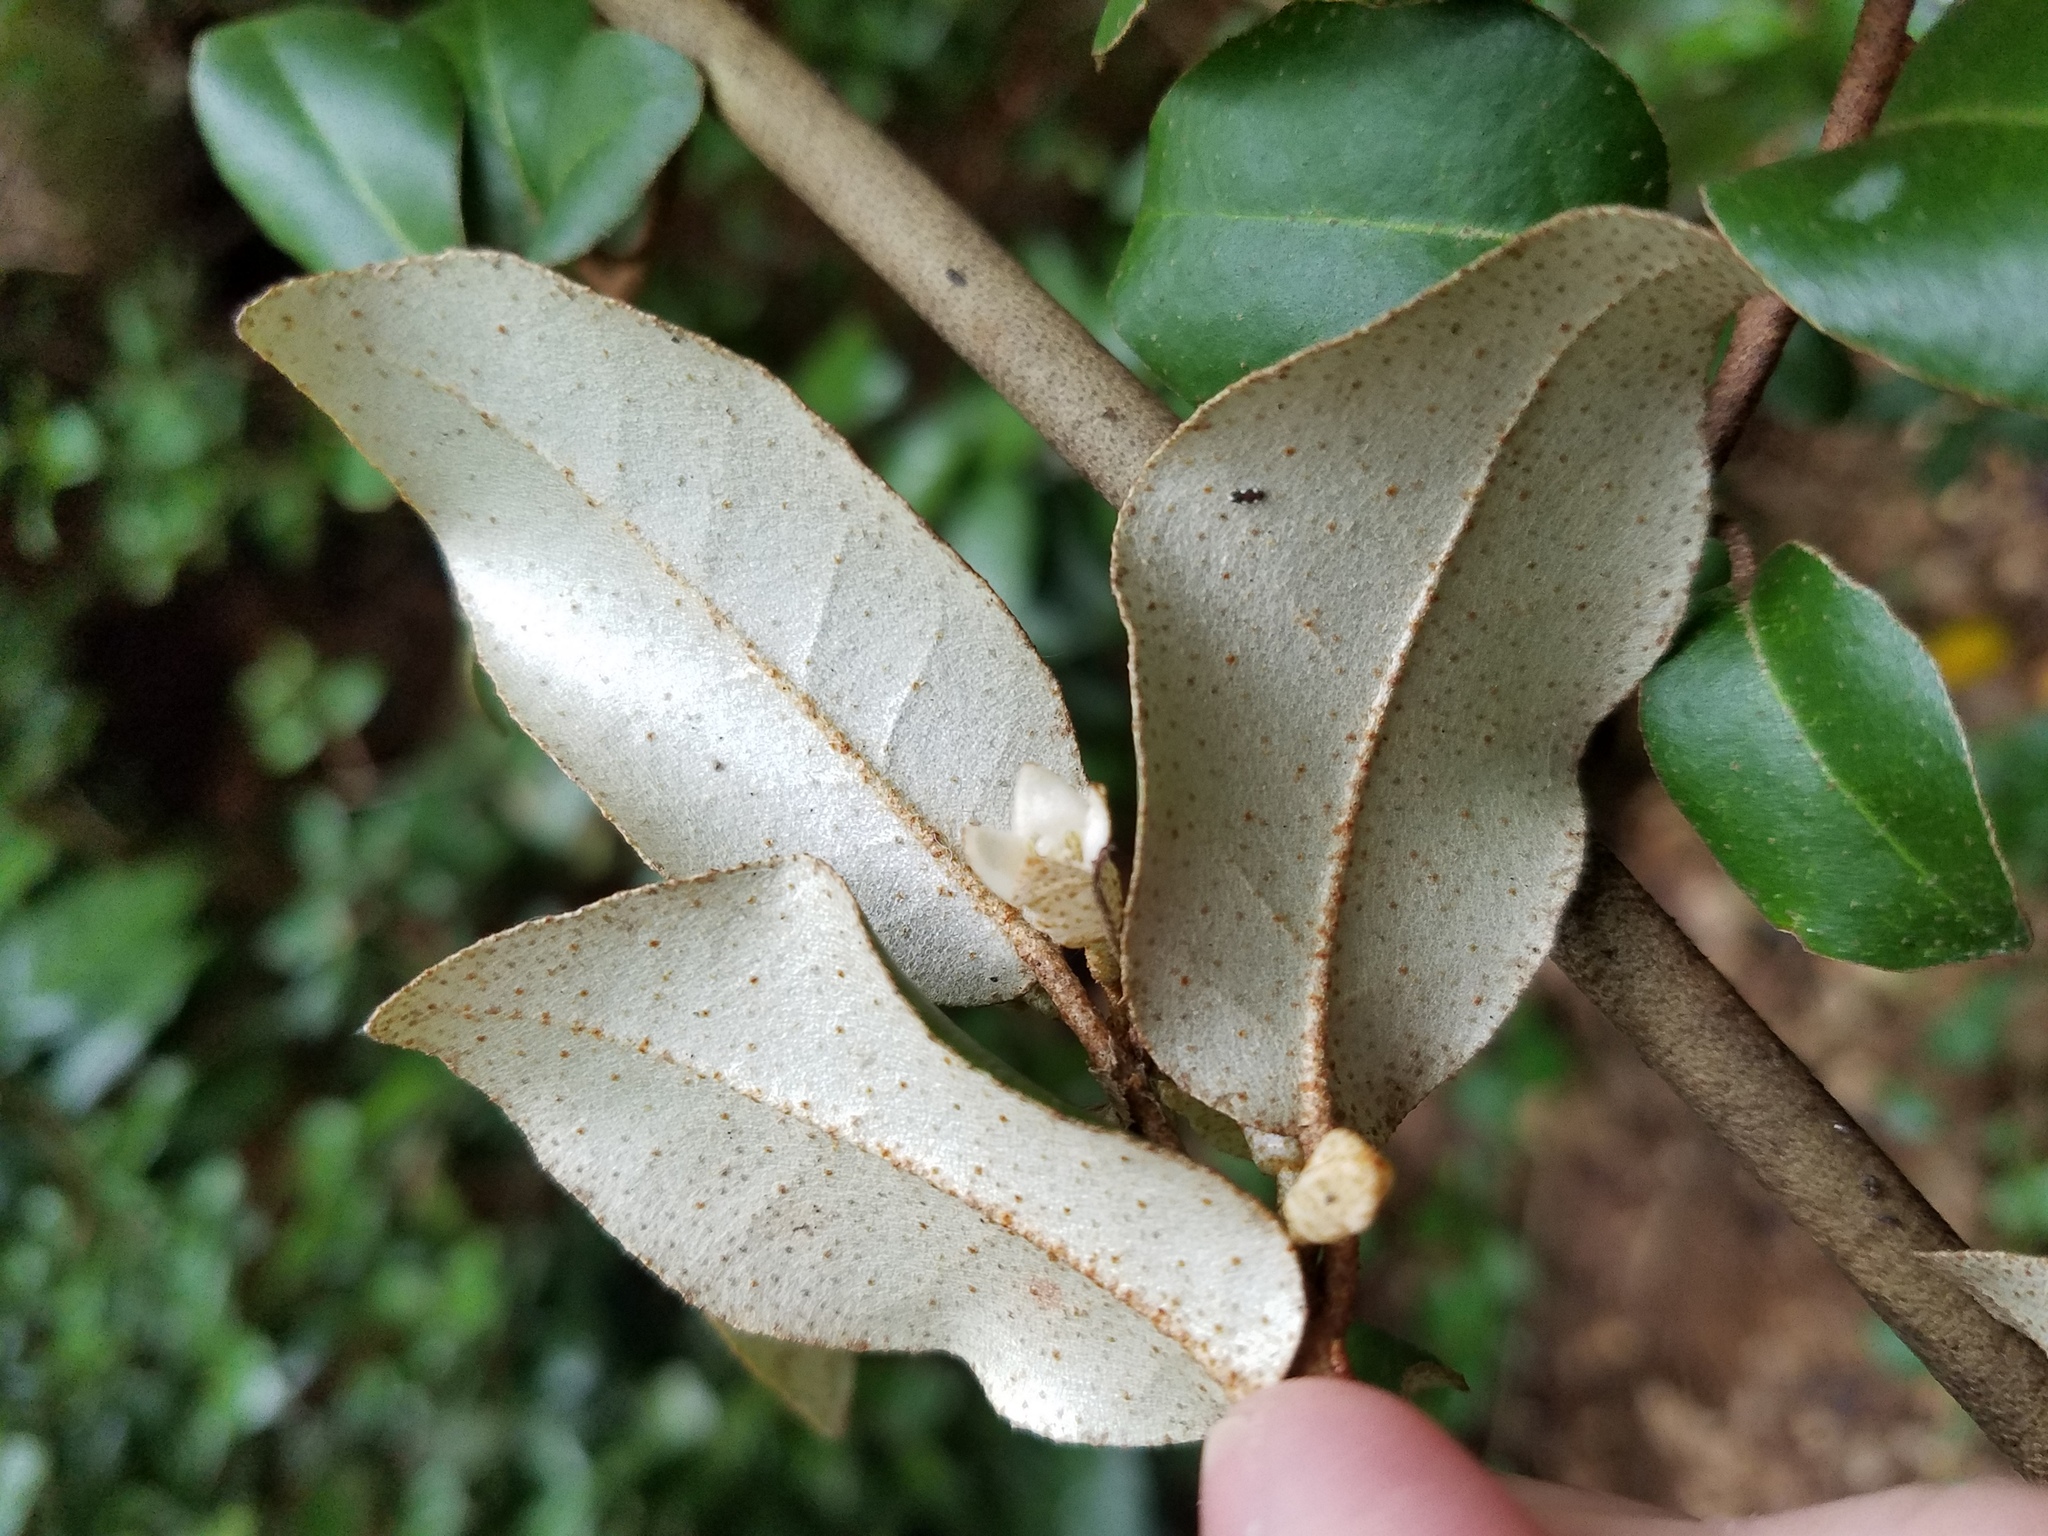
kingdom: Plantae
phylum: Tracheophyta
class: Magnoliopsida
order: Rosales
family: Elaeagnaceae
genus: Elaeagnus
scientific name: Elaeagnus pungens
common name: Spiny oleaster
